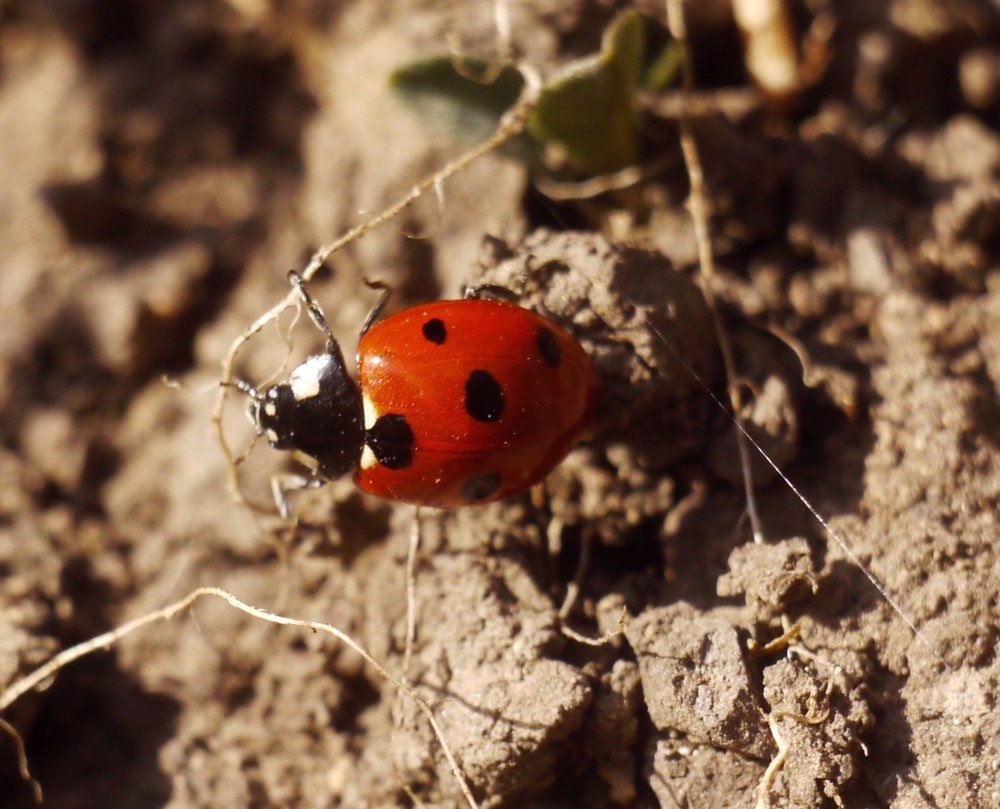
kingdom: Animalia
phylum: Arthropoda
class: Insecta
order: Coleoptera
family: Coccinellidae
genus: Coccinella
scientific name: Coccinella septempunctata
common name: Sevenspotted lady beetle
